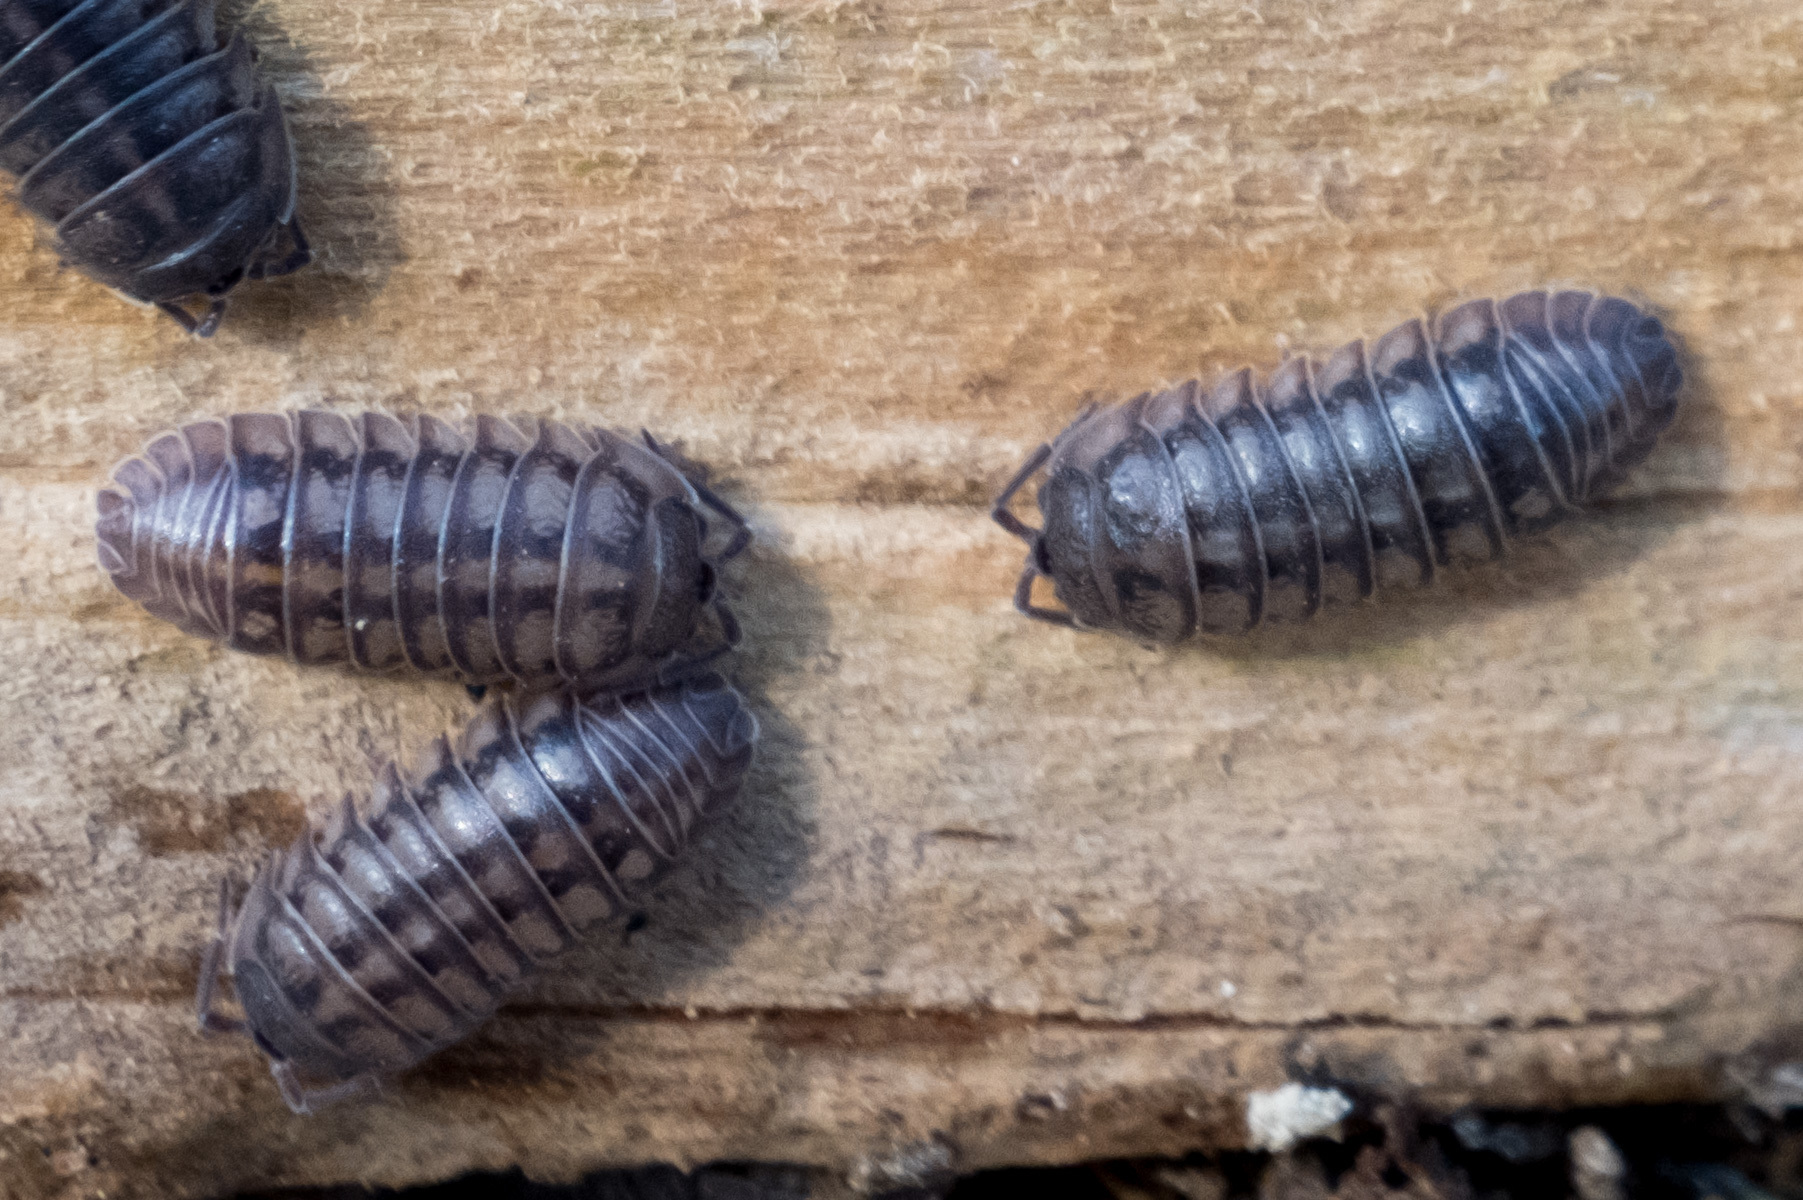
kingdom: Animalia
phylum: Arthropoda
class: Malacostraca
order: Isopoda
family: Armadillidiidae
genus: Armadillidium
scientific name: Armadillidium nasatum
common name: Isopod
